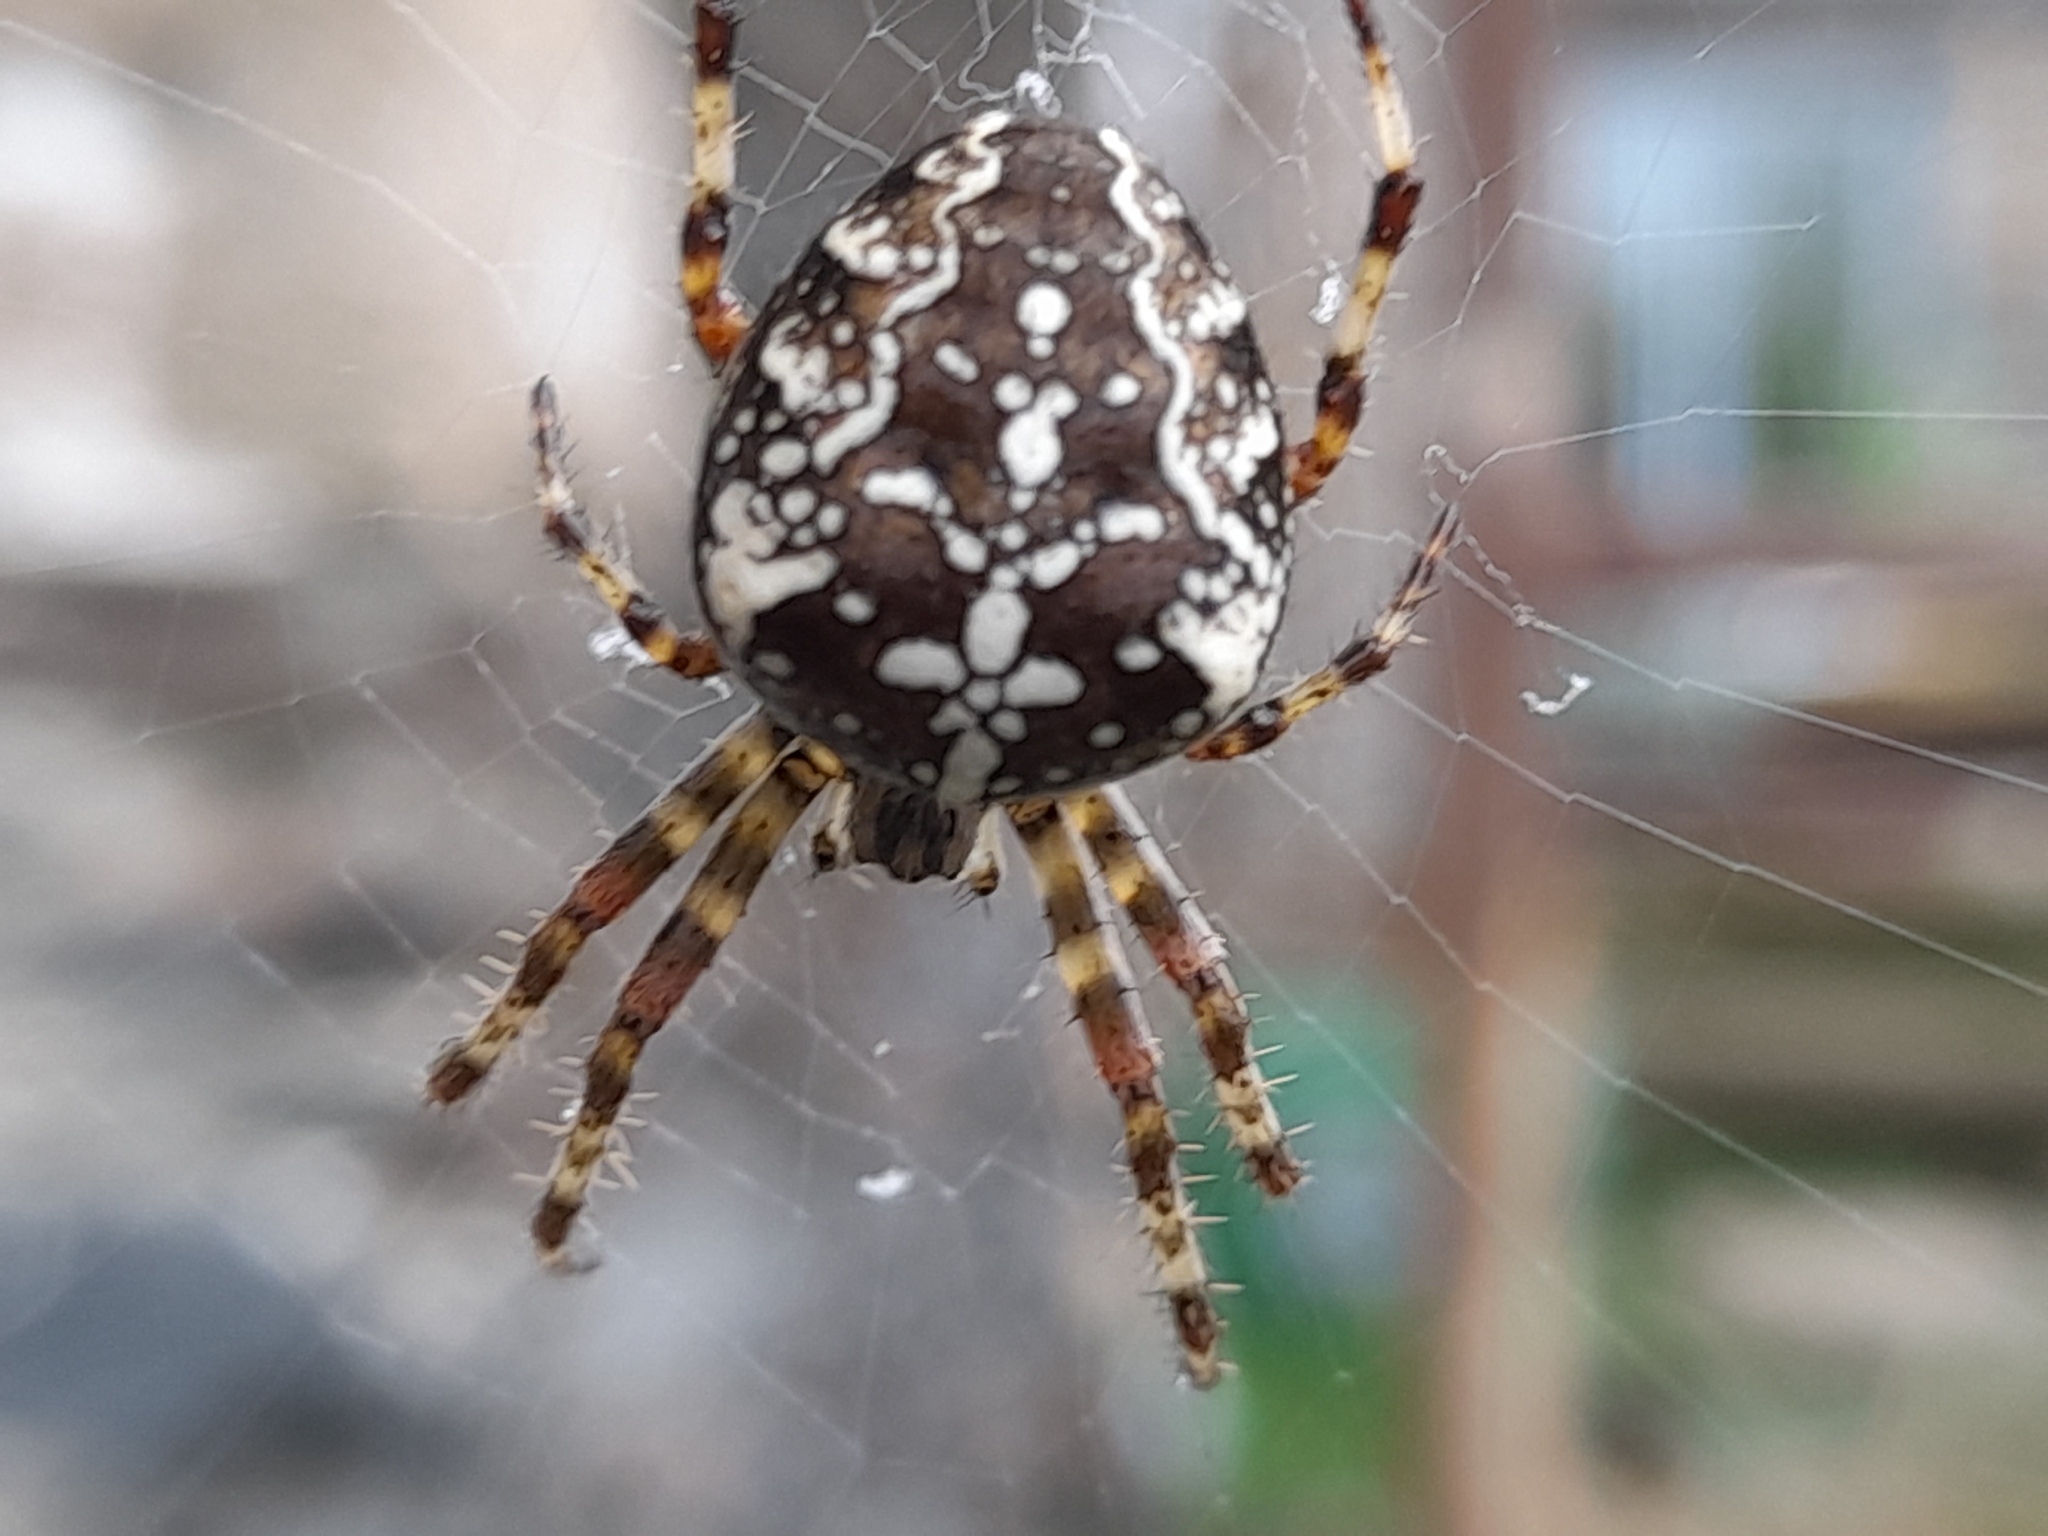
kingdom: Animalia
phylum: Arthropoda
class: Arachnida
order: Araneae
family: Araneidae
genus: Araneus
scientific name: Araneus diadematus
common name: Cross orbweaver
